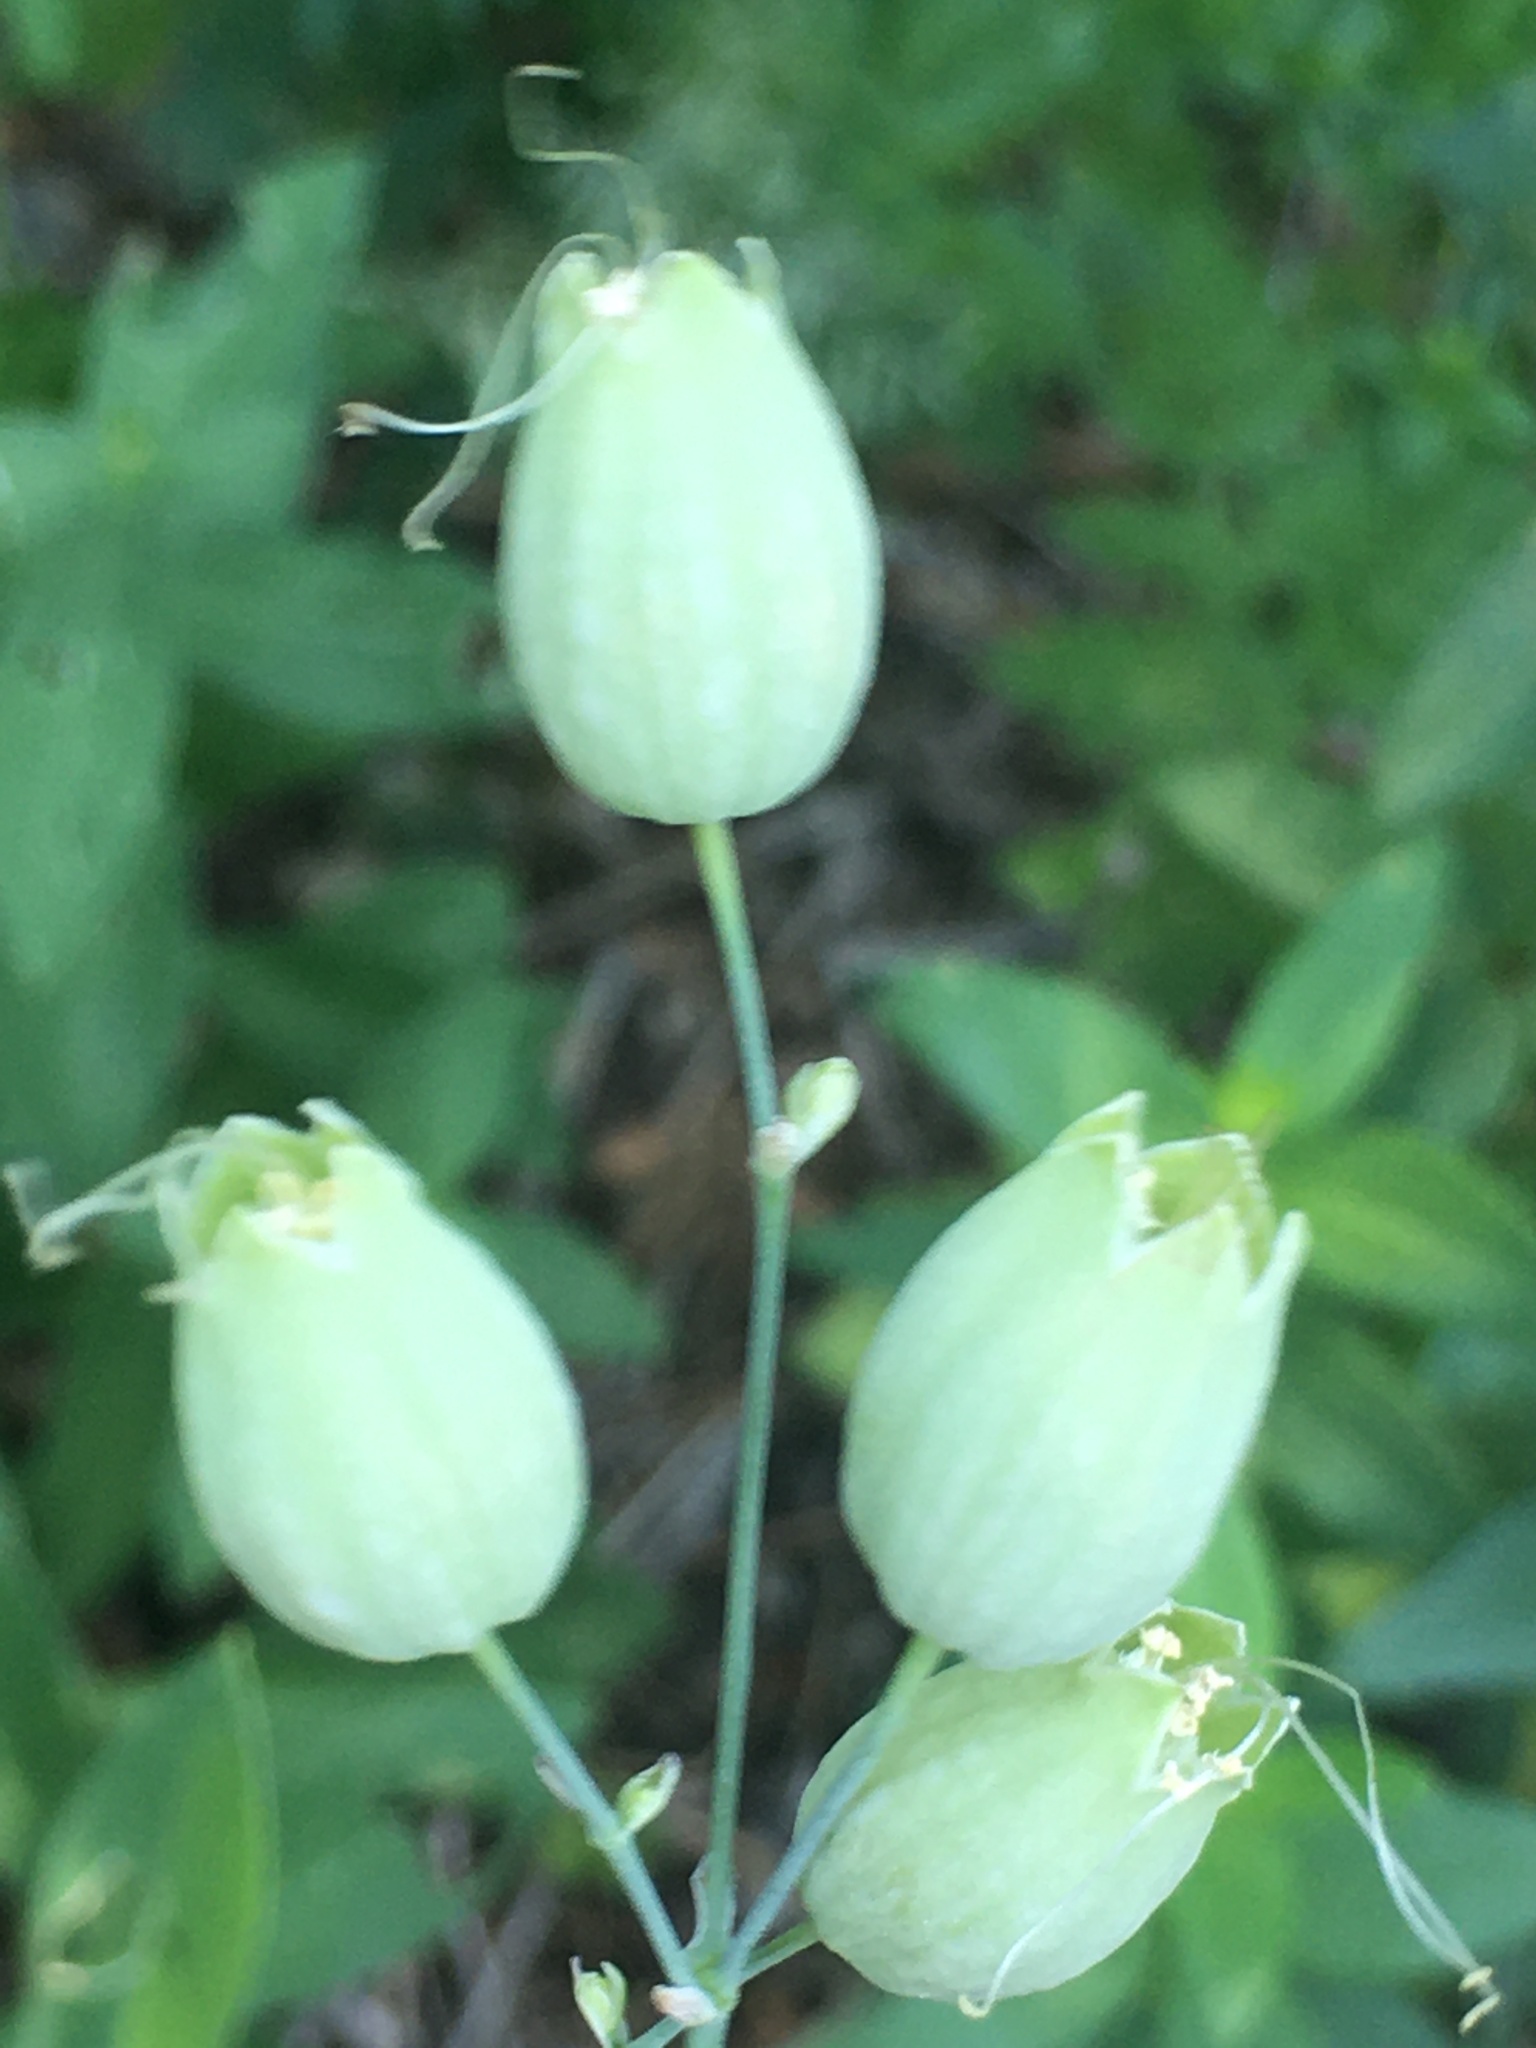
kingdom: Plantae
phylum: Tracheophyta
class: Magnoliopsida
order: Caryophyllales
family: Caryophyllaceae
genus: Silene
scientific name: Silene vulgaris
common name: Bladder campion
